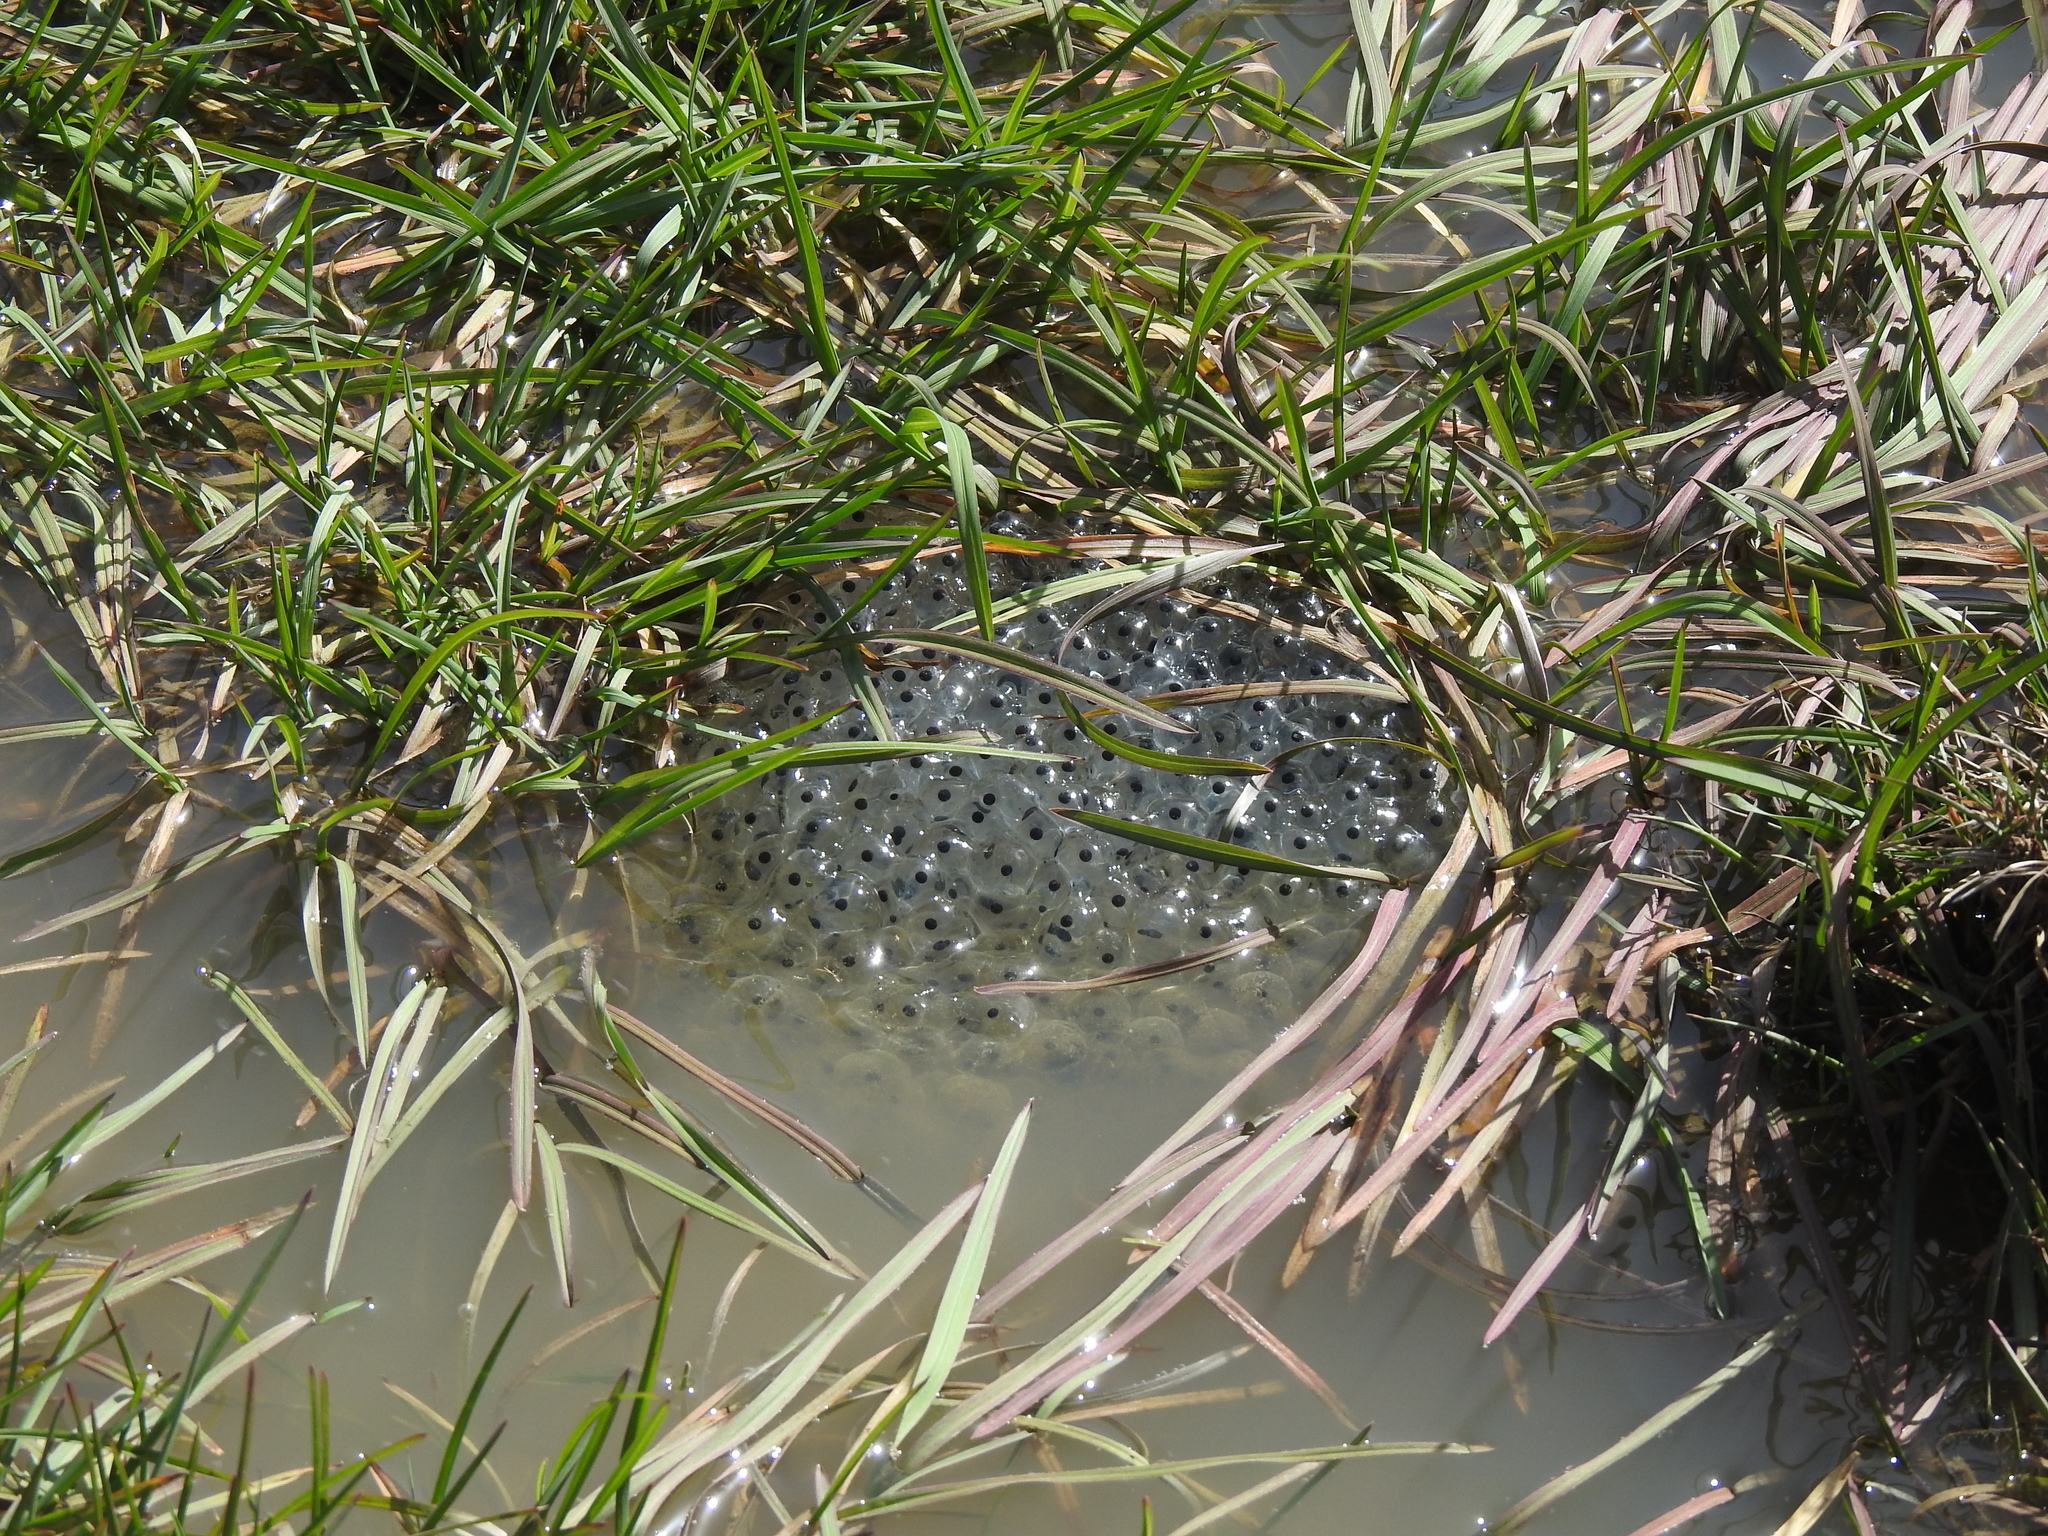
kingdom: Animalia
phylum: Chordata
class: Amphibia
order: Anura
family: Ranidae
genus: Rana
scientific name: Rana temporaria
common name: Common frog
